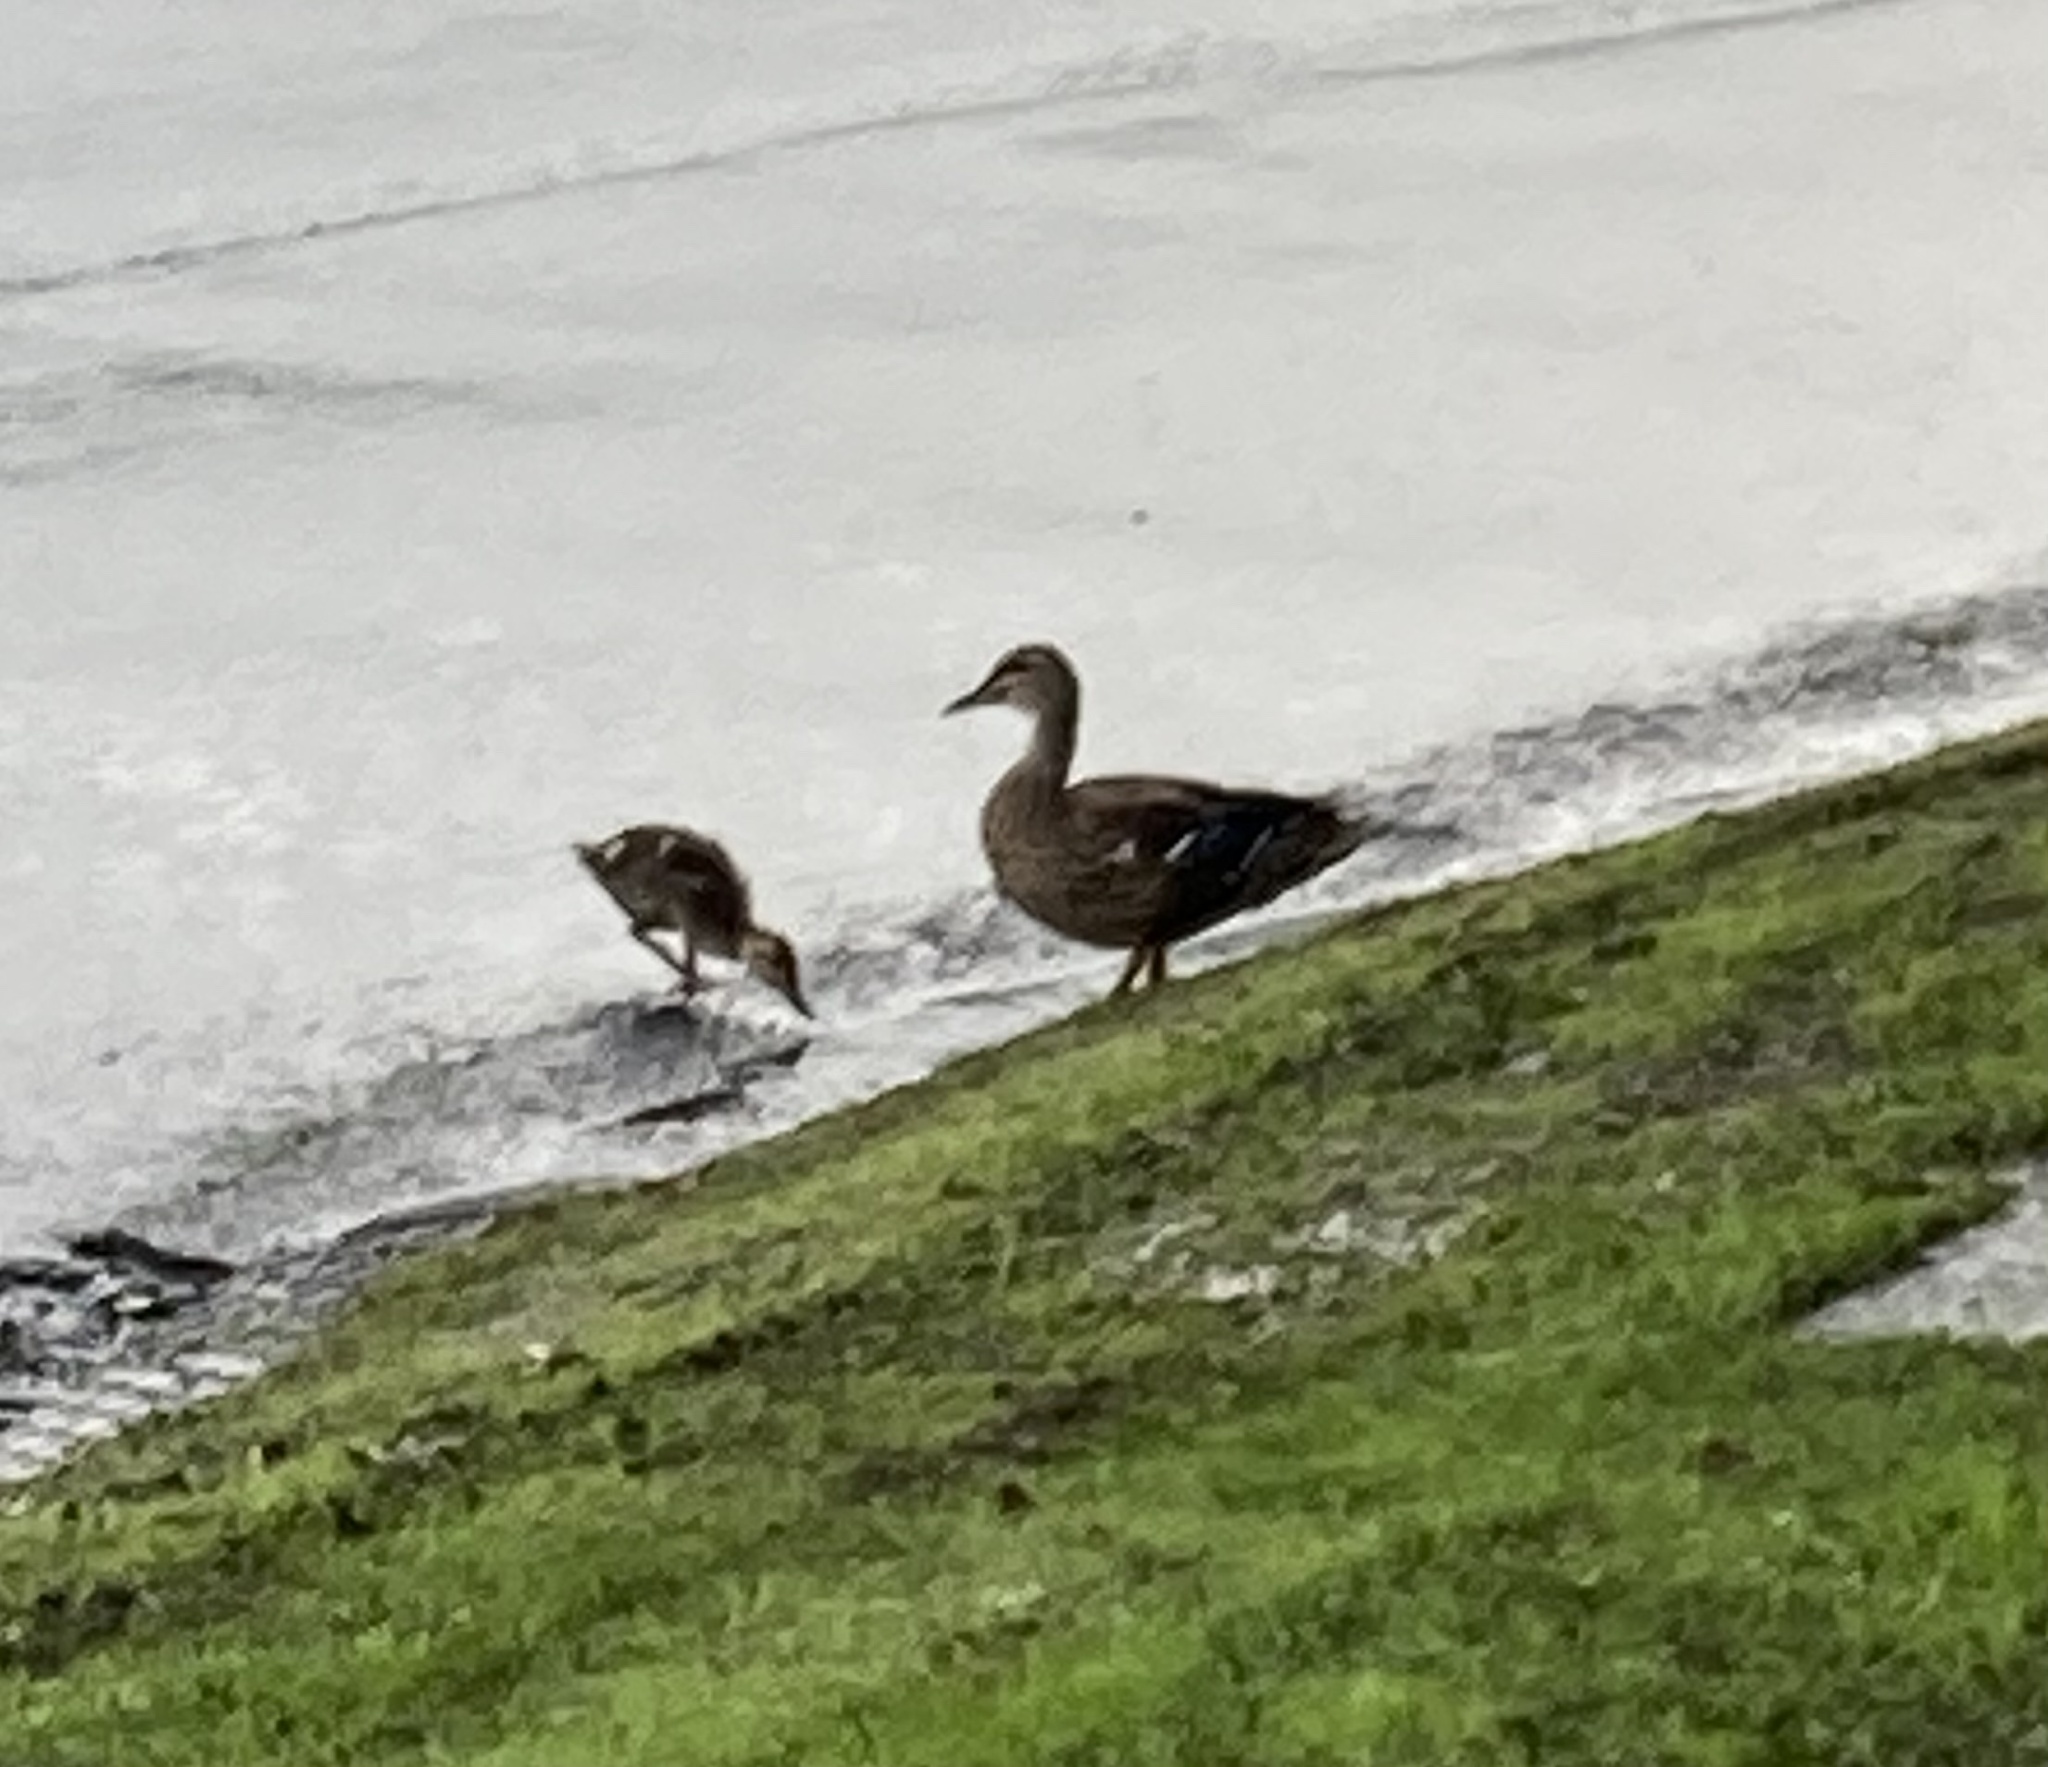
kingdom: Animalia
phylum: Chordata
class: Aves
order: Anseriformes
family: Anatidae
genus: Anas
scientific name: Anas
